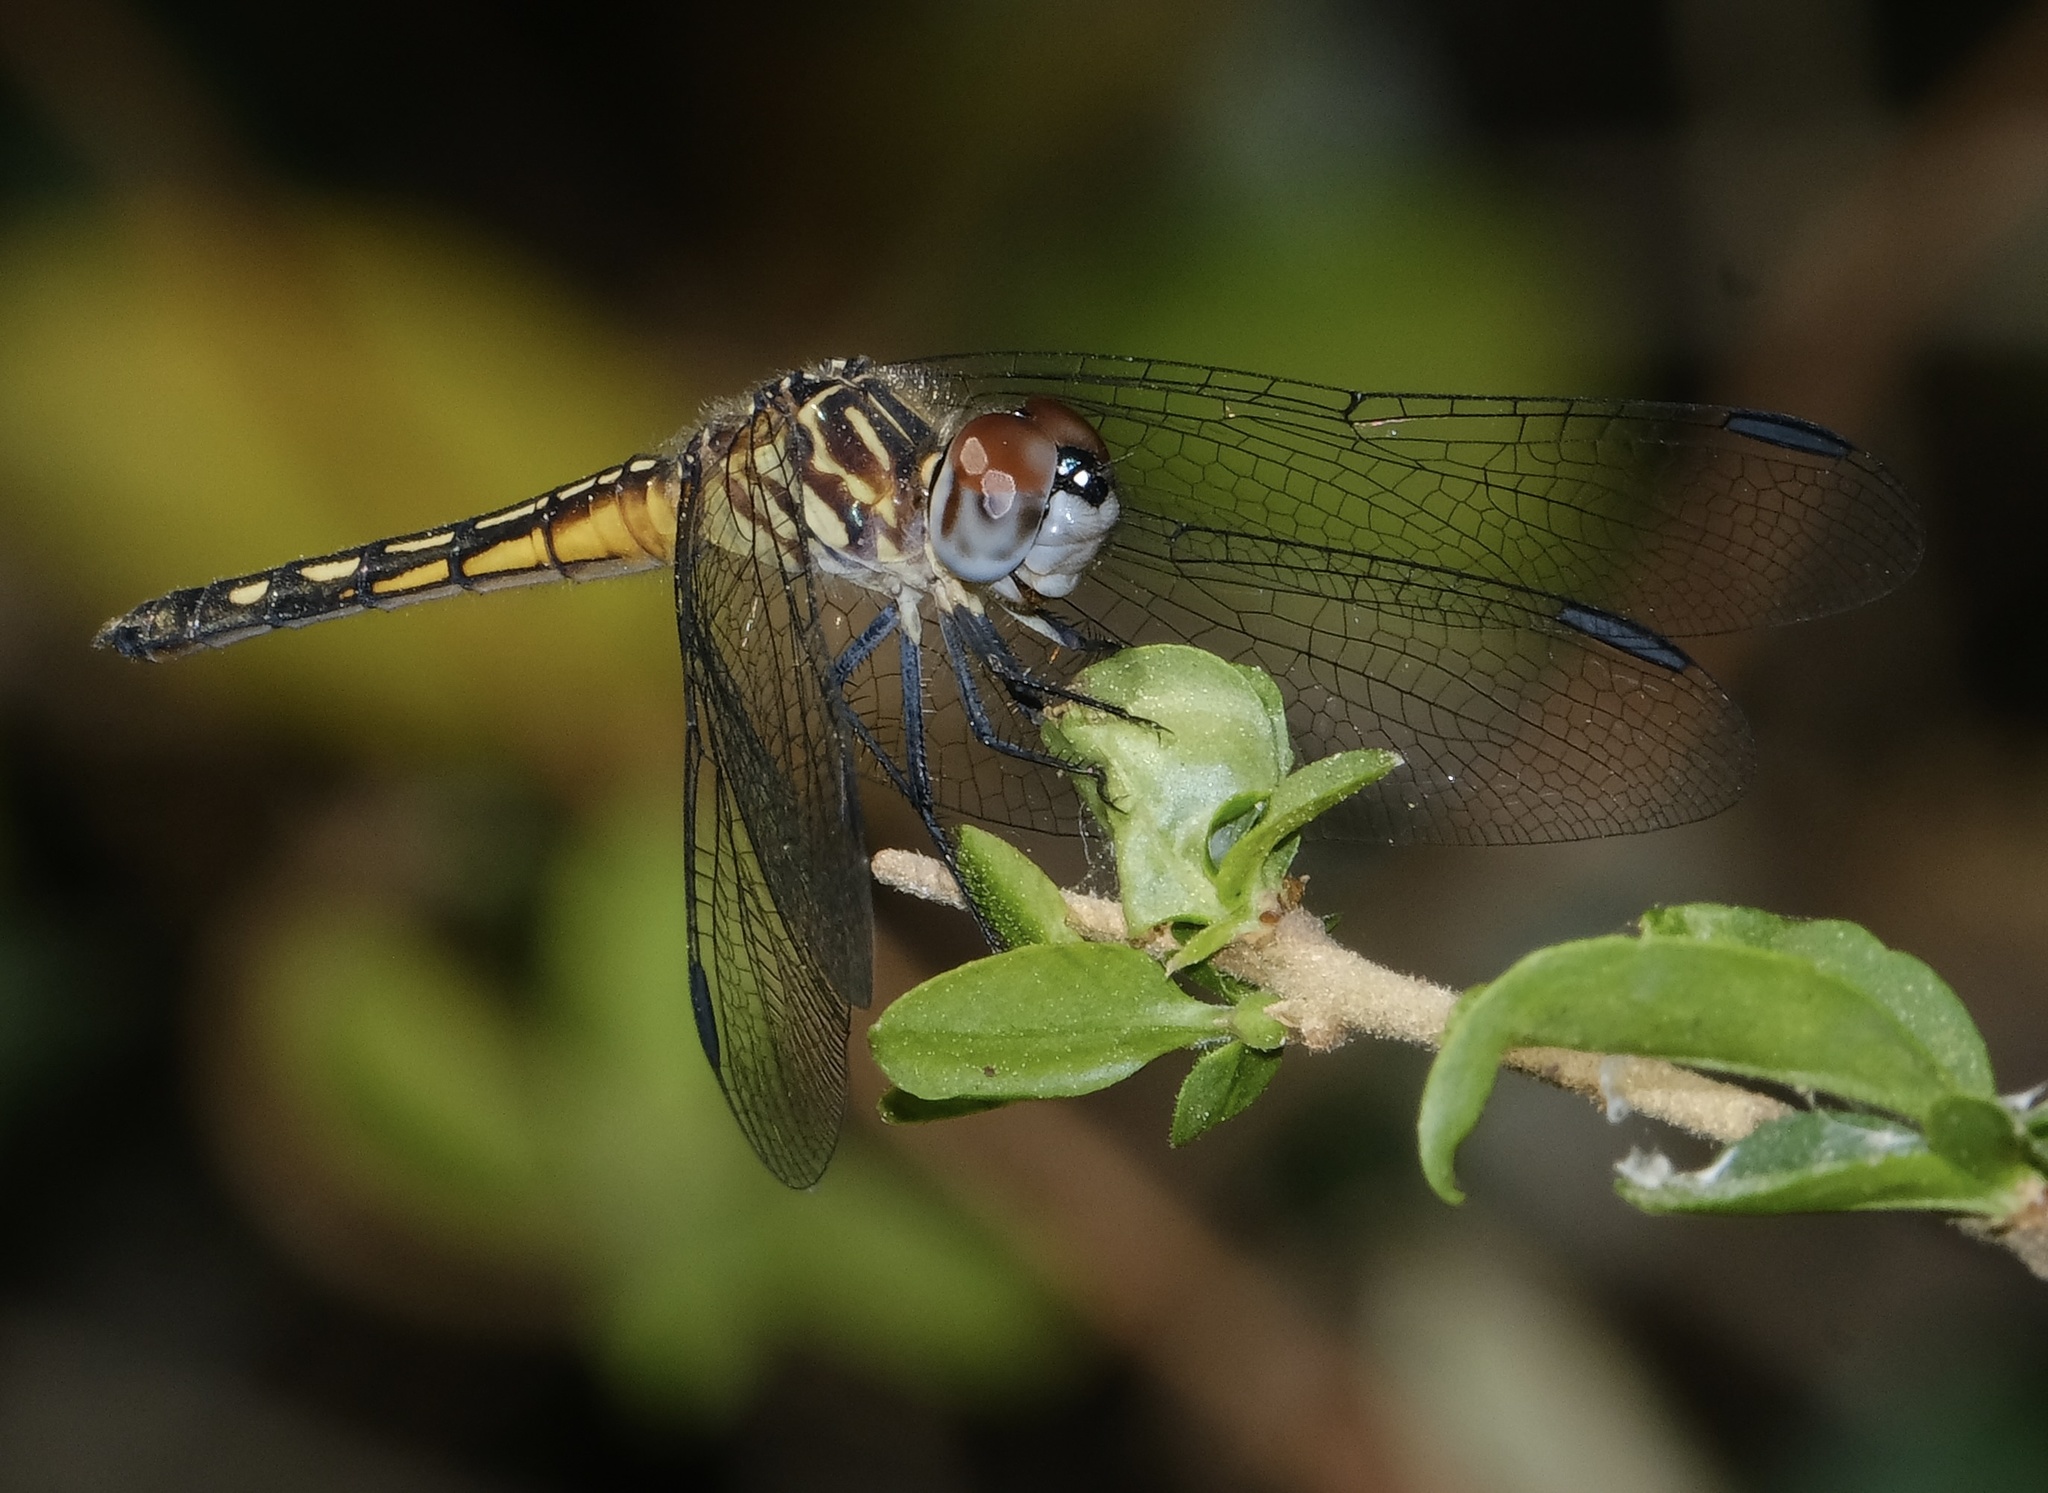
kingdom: Animalia
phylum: Arthropoda
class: Insecta
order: Odonata
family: Libellulidae
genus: Pachydiplax
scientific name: Pachydiplax longipennis
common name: Blue dasher
